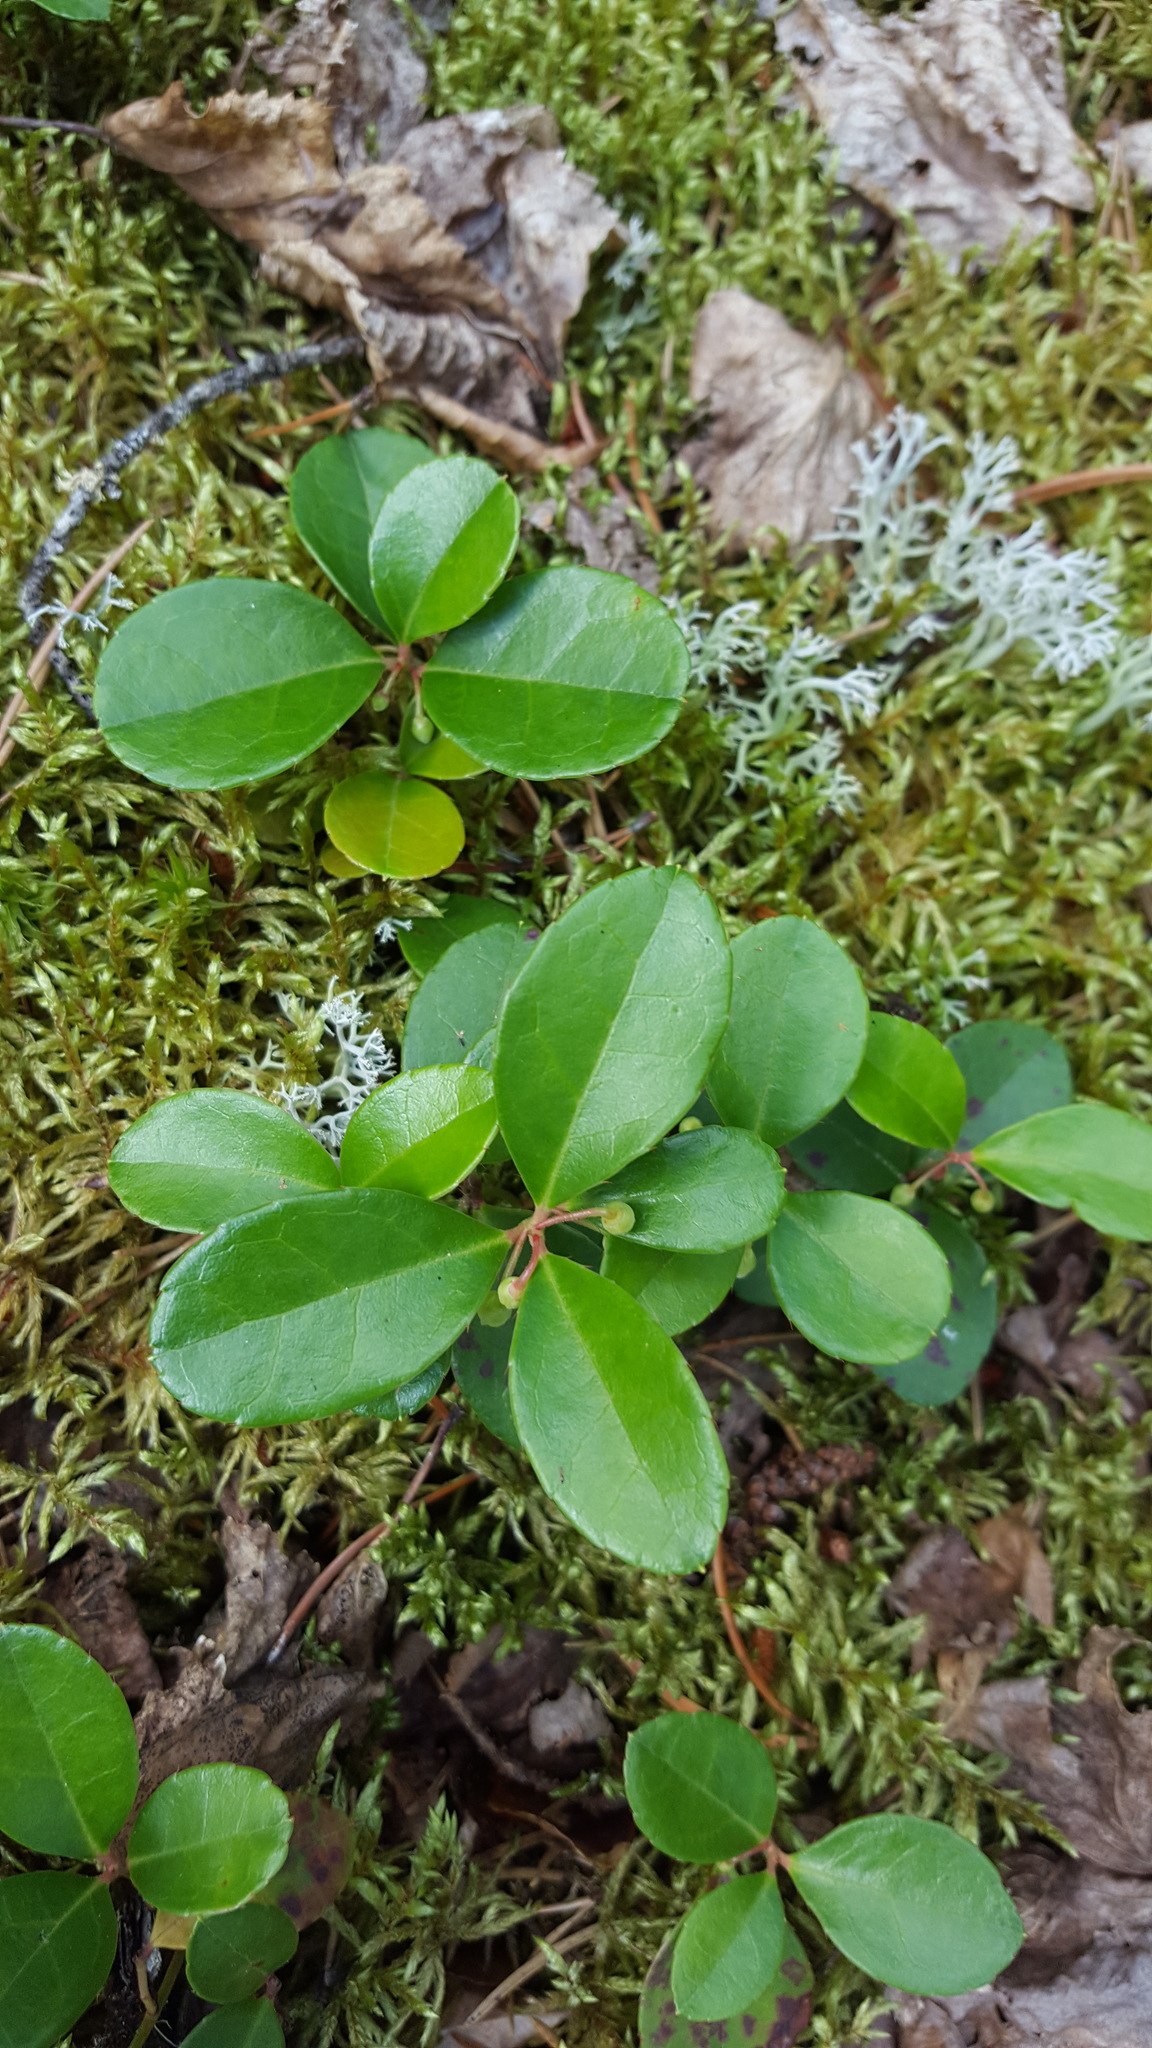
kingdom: Plantae
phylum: Tracheophyta
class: Magnoliopsida
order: Ericales
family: Ericaceae
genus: Gaultheria
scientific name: Gaultheria procumbens
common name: Checkerberry
